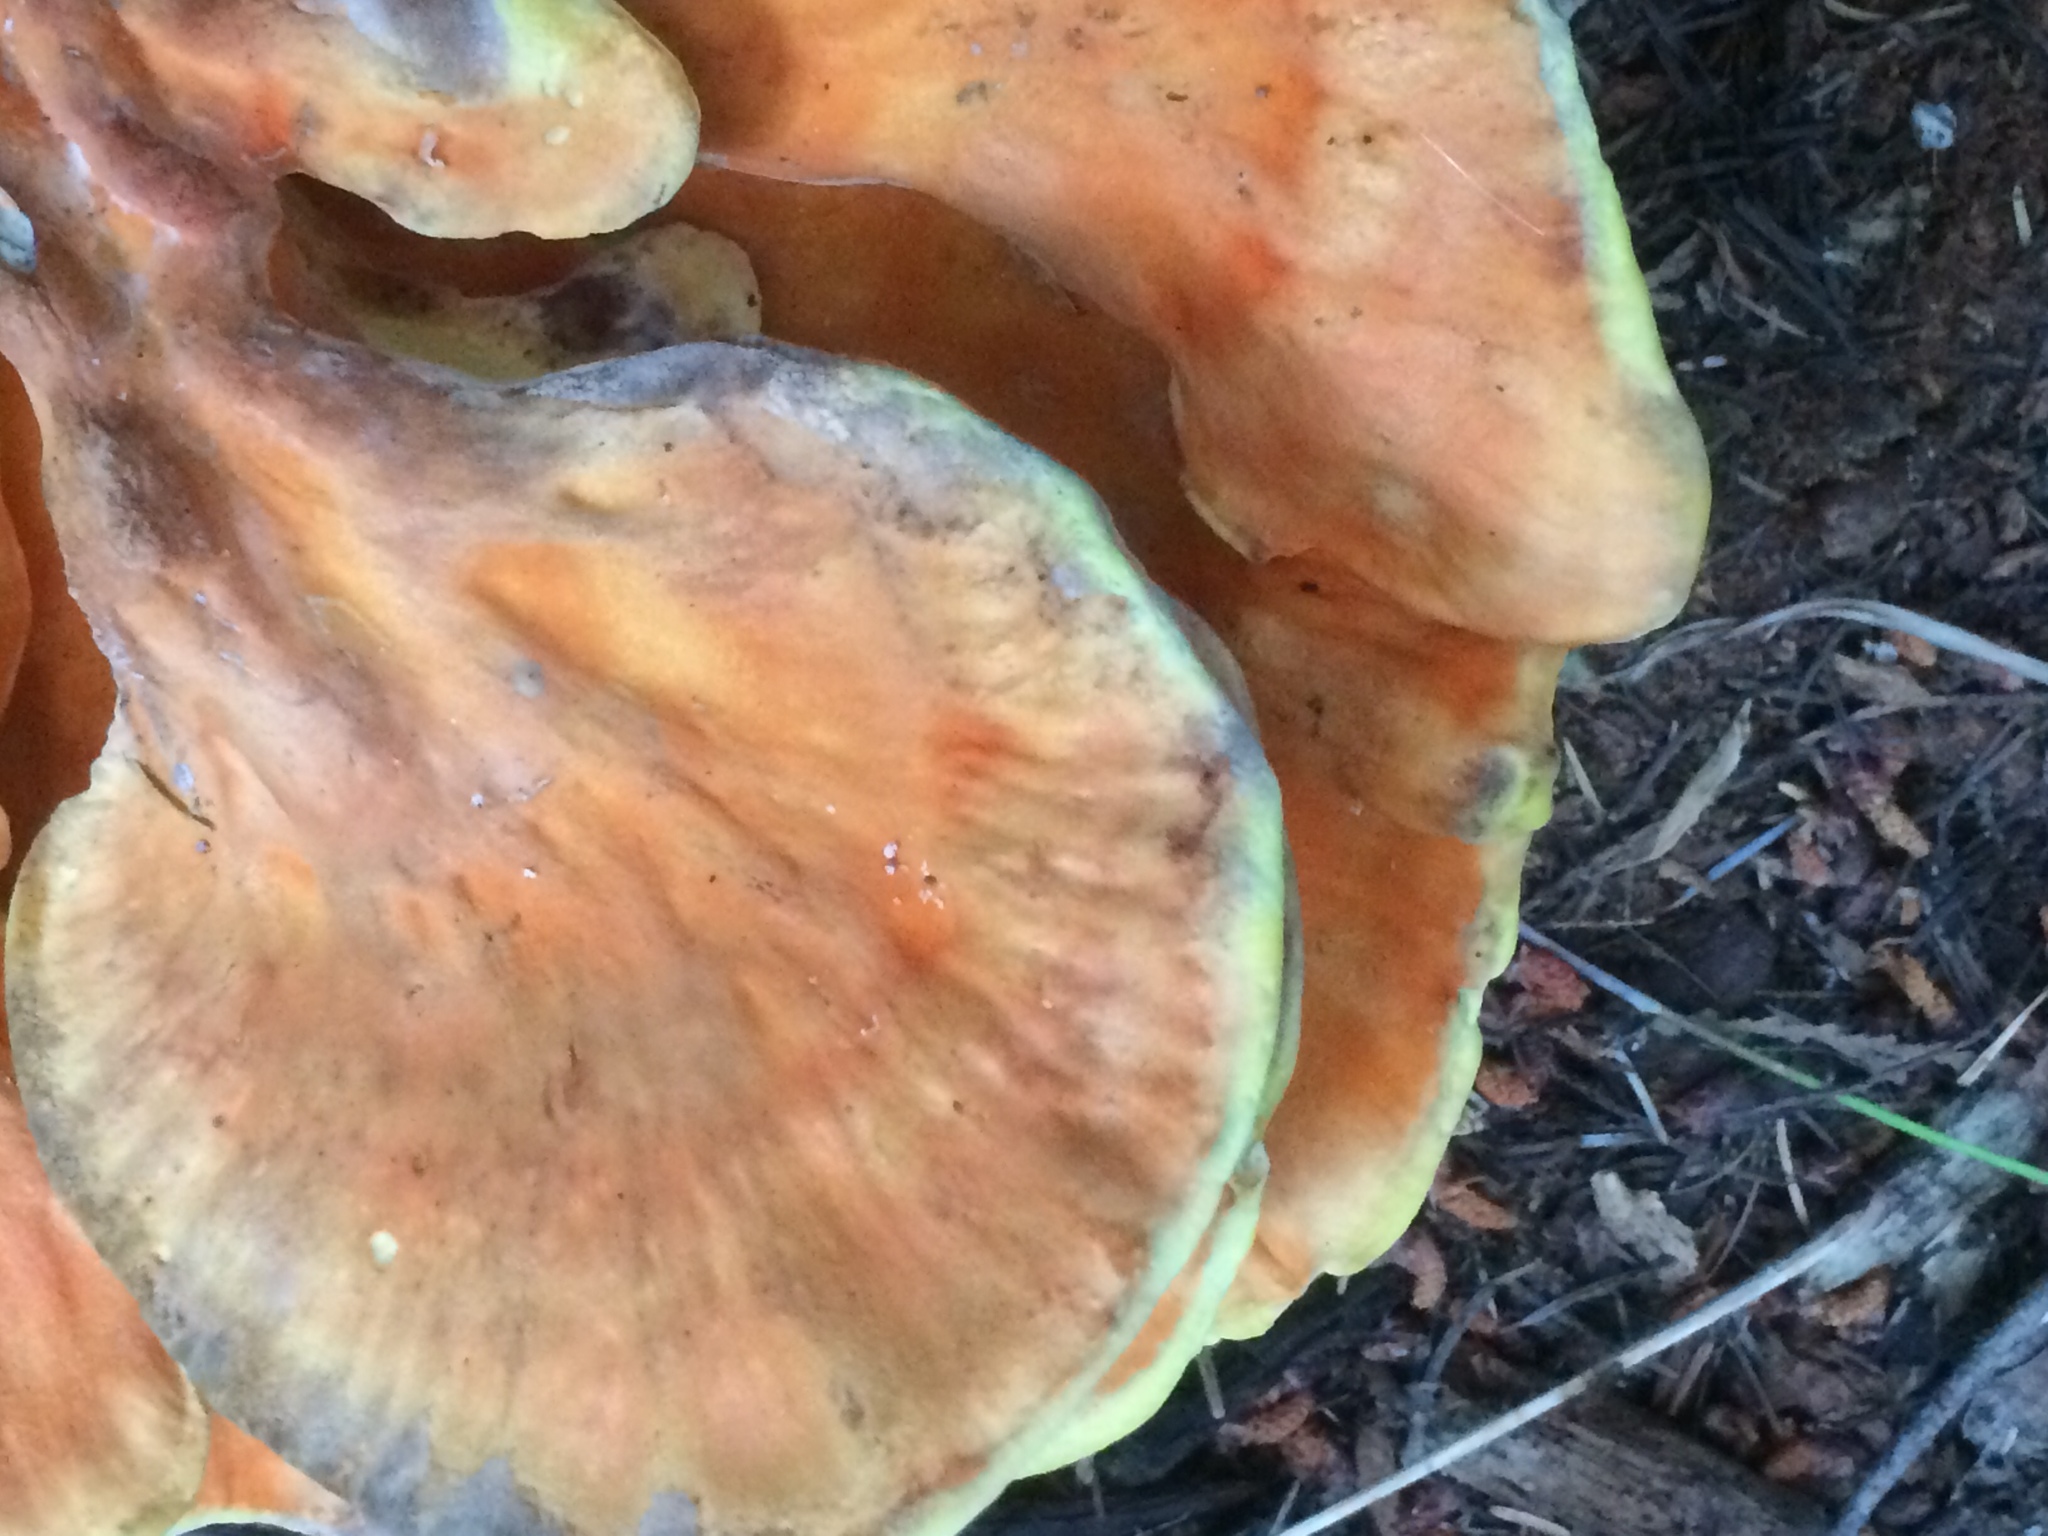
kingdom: Fungi
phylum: Basidiomycota
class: Agaricomycetes
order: Polyporales
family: Laetiporaceae
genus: Laetiporus
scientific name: Laetiporus conifericola
